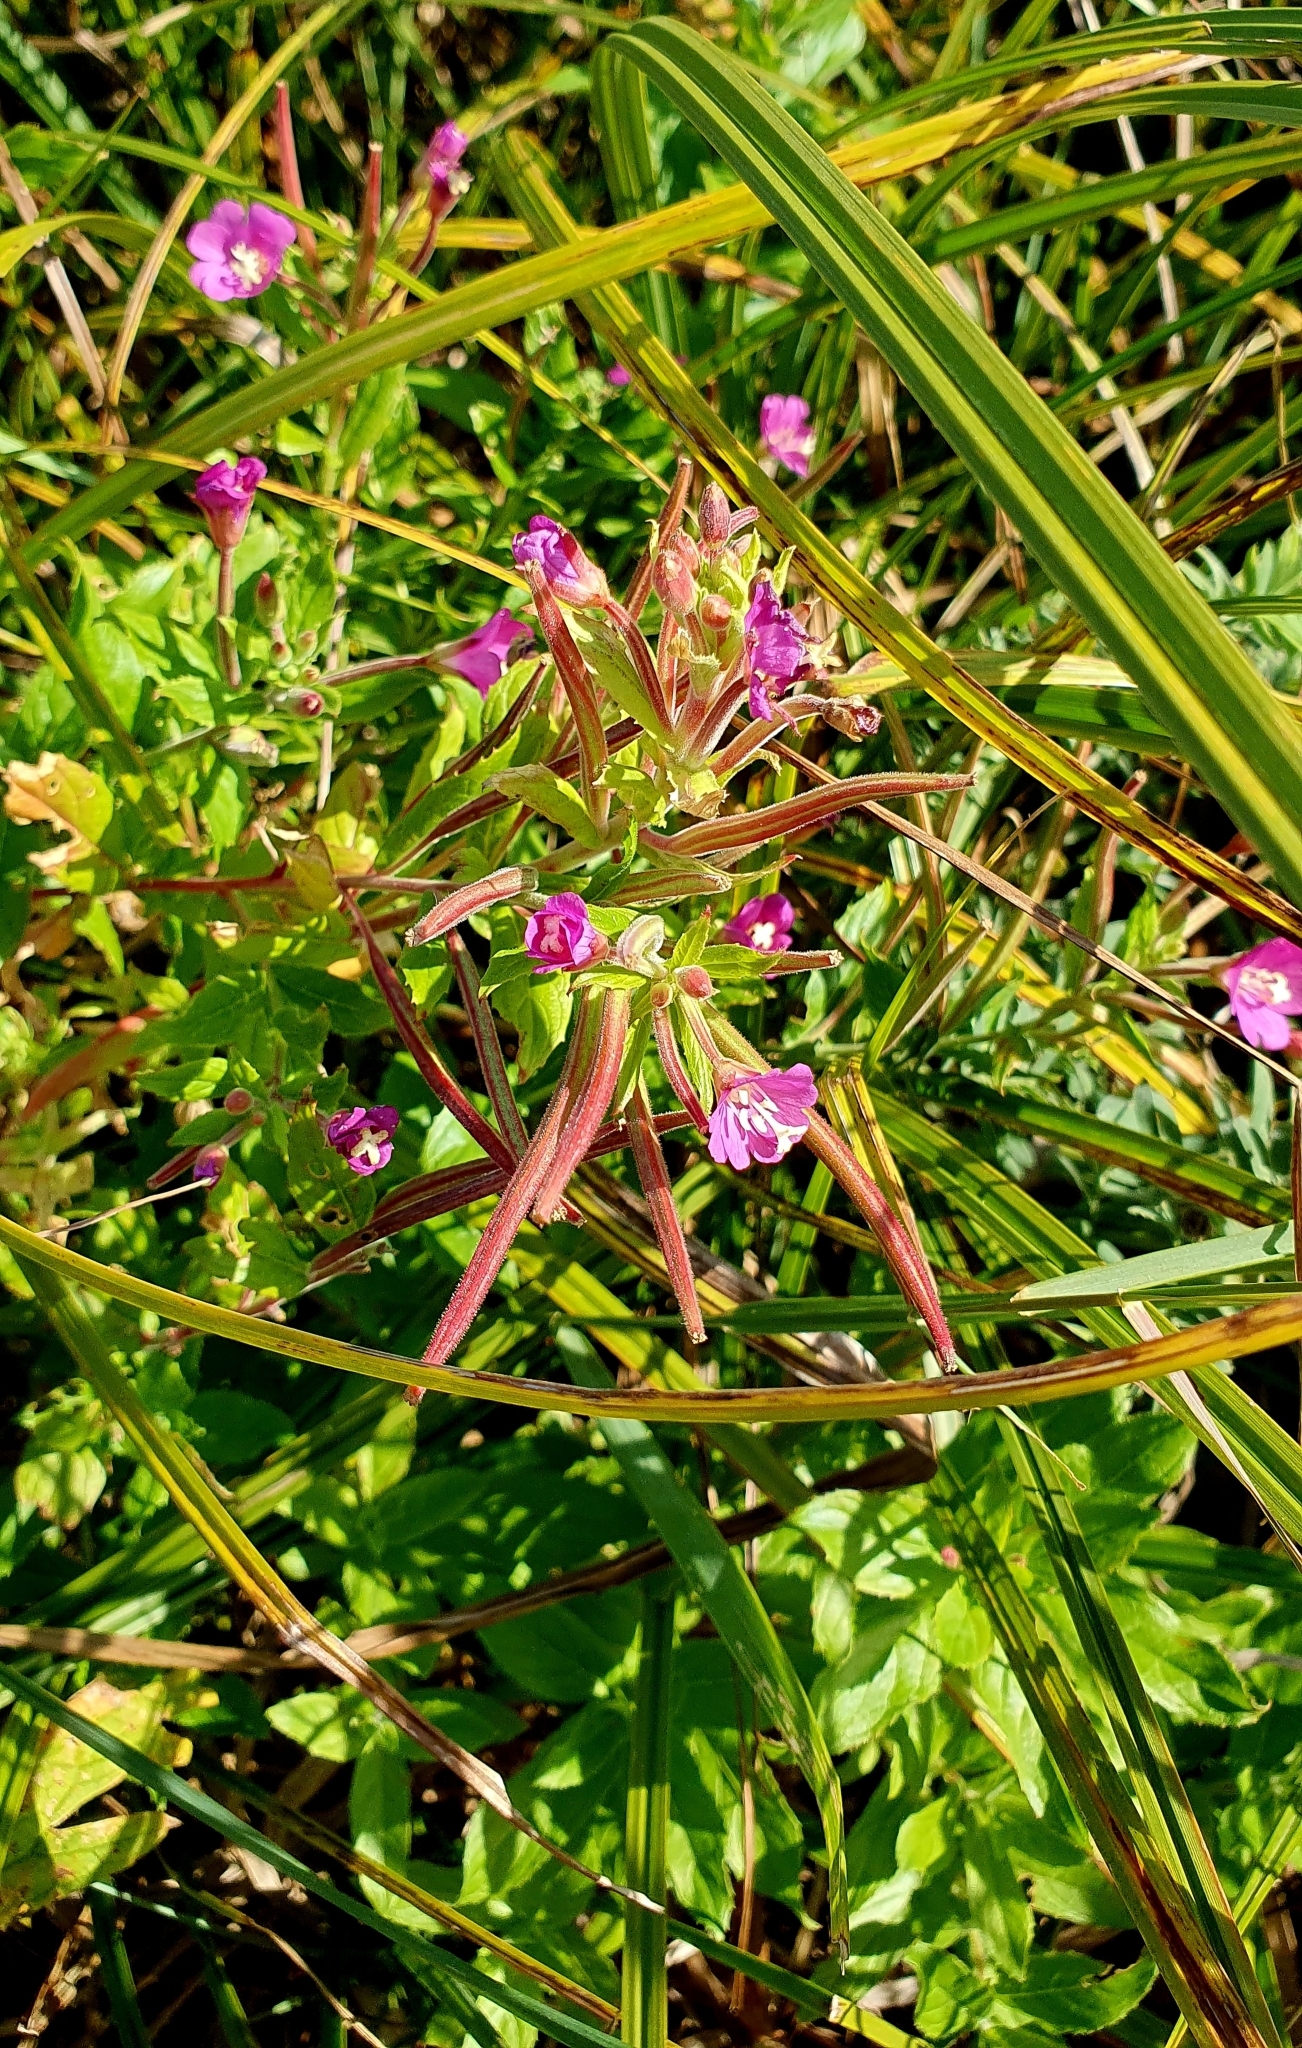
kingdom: Plantae
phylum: Tracheophyta
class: Magnoliopsida
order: Myrtales
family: Onagraceae
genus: Epilobium
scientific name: Epilobium hirsutum
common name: Great willowherb
